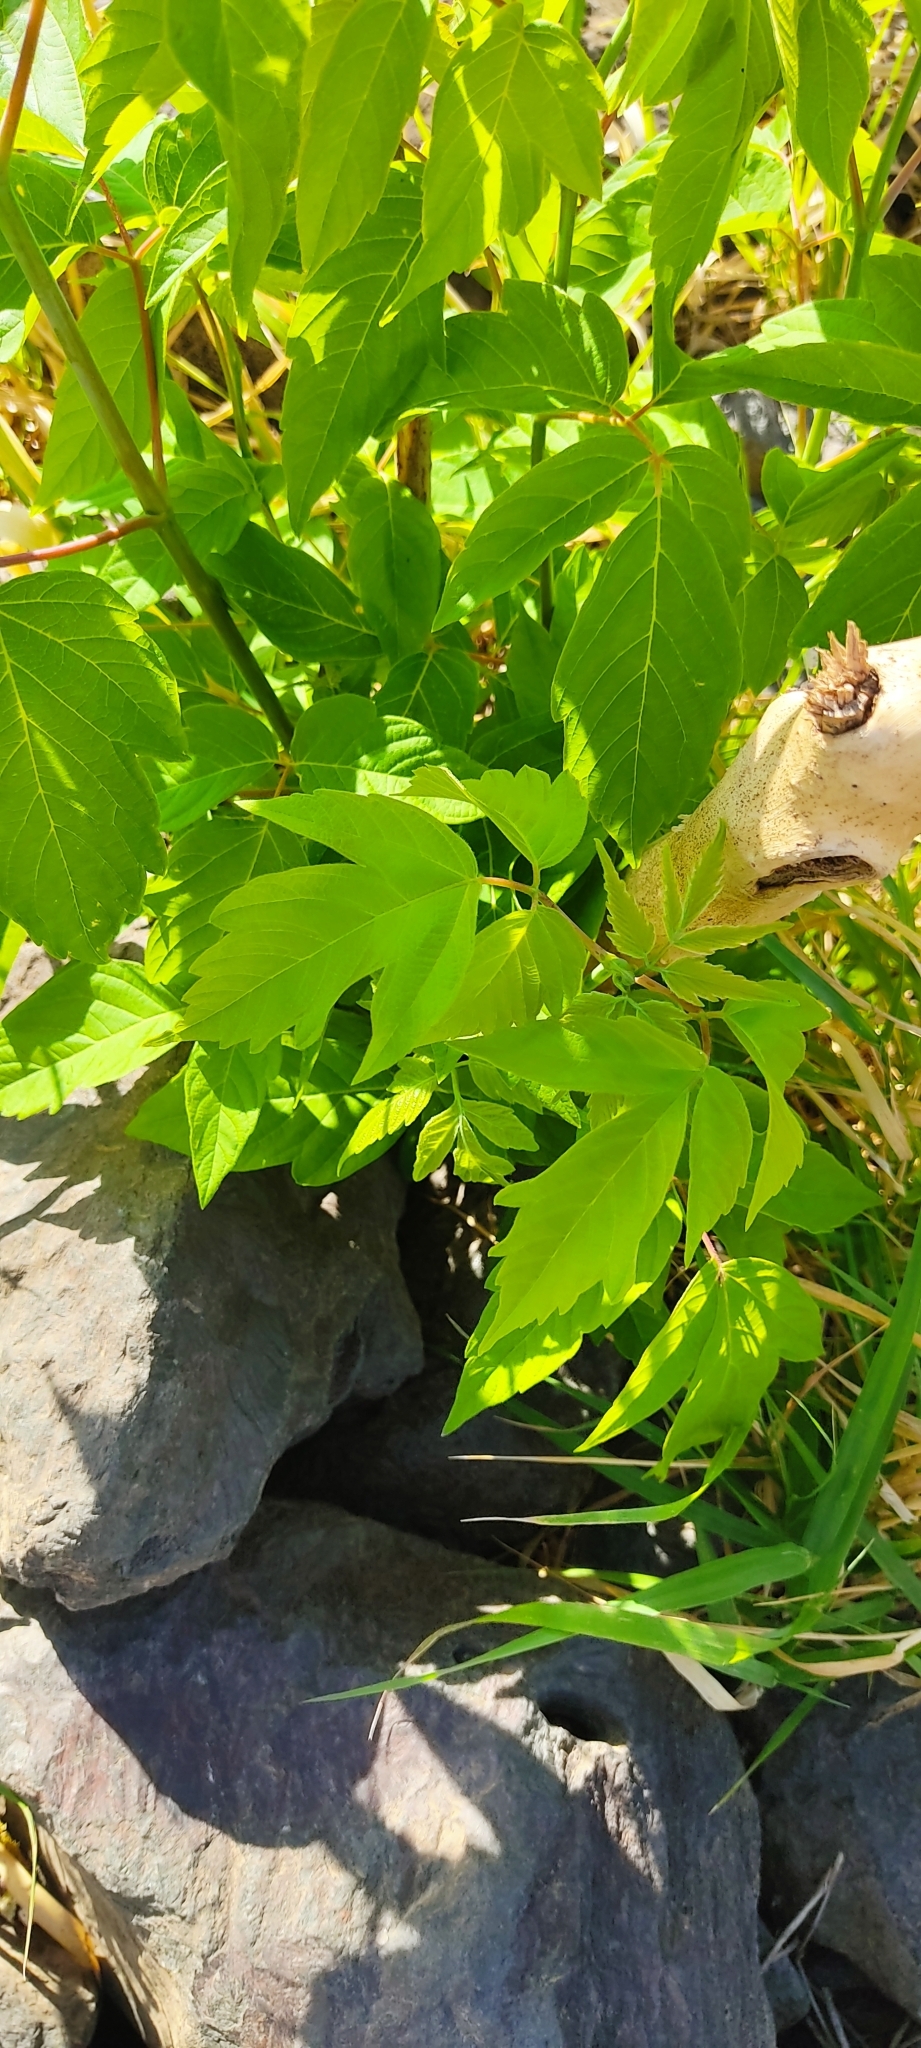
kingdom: Plantae
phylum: Tracheophyta
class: Magnoliopsida
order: Sapindales
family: Sapindaceae
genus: Acer
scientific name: Acer negundo
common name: Ashleaf maple
